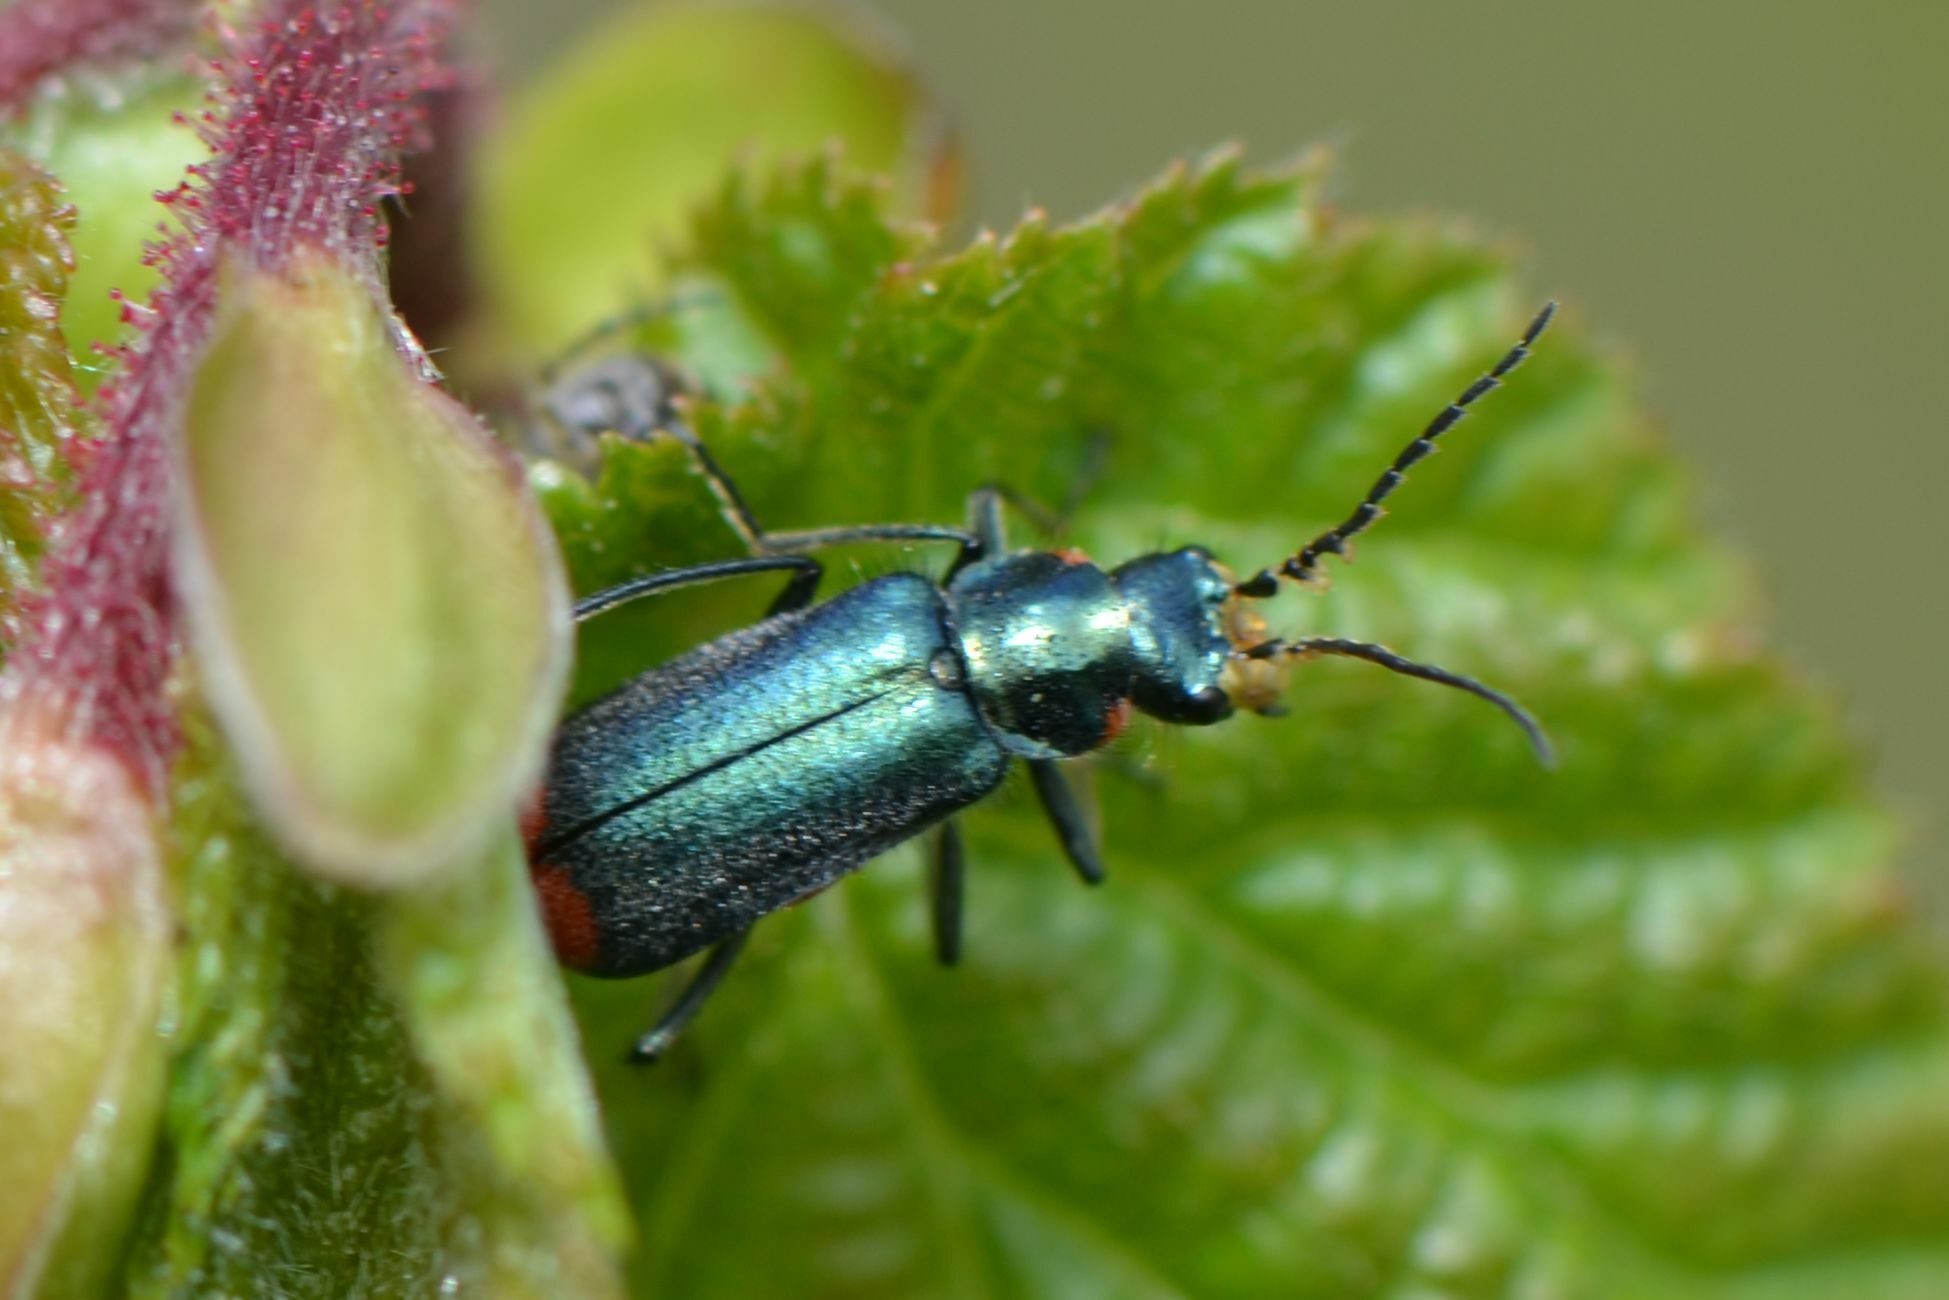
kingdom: Animalia
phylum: Arthropoda
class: Insecta
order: Coleoptera
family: Melyridae
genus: Malachius
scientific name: Malachius bipustulatus
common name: Malachite beetle
